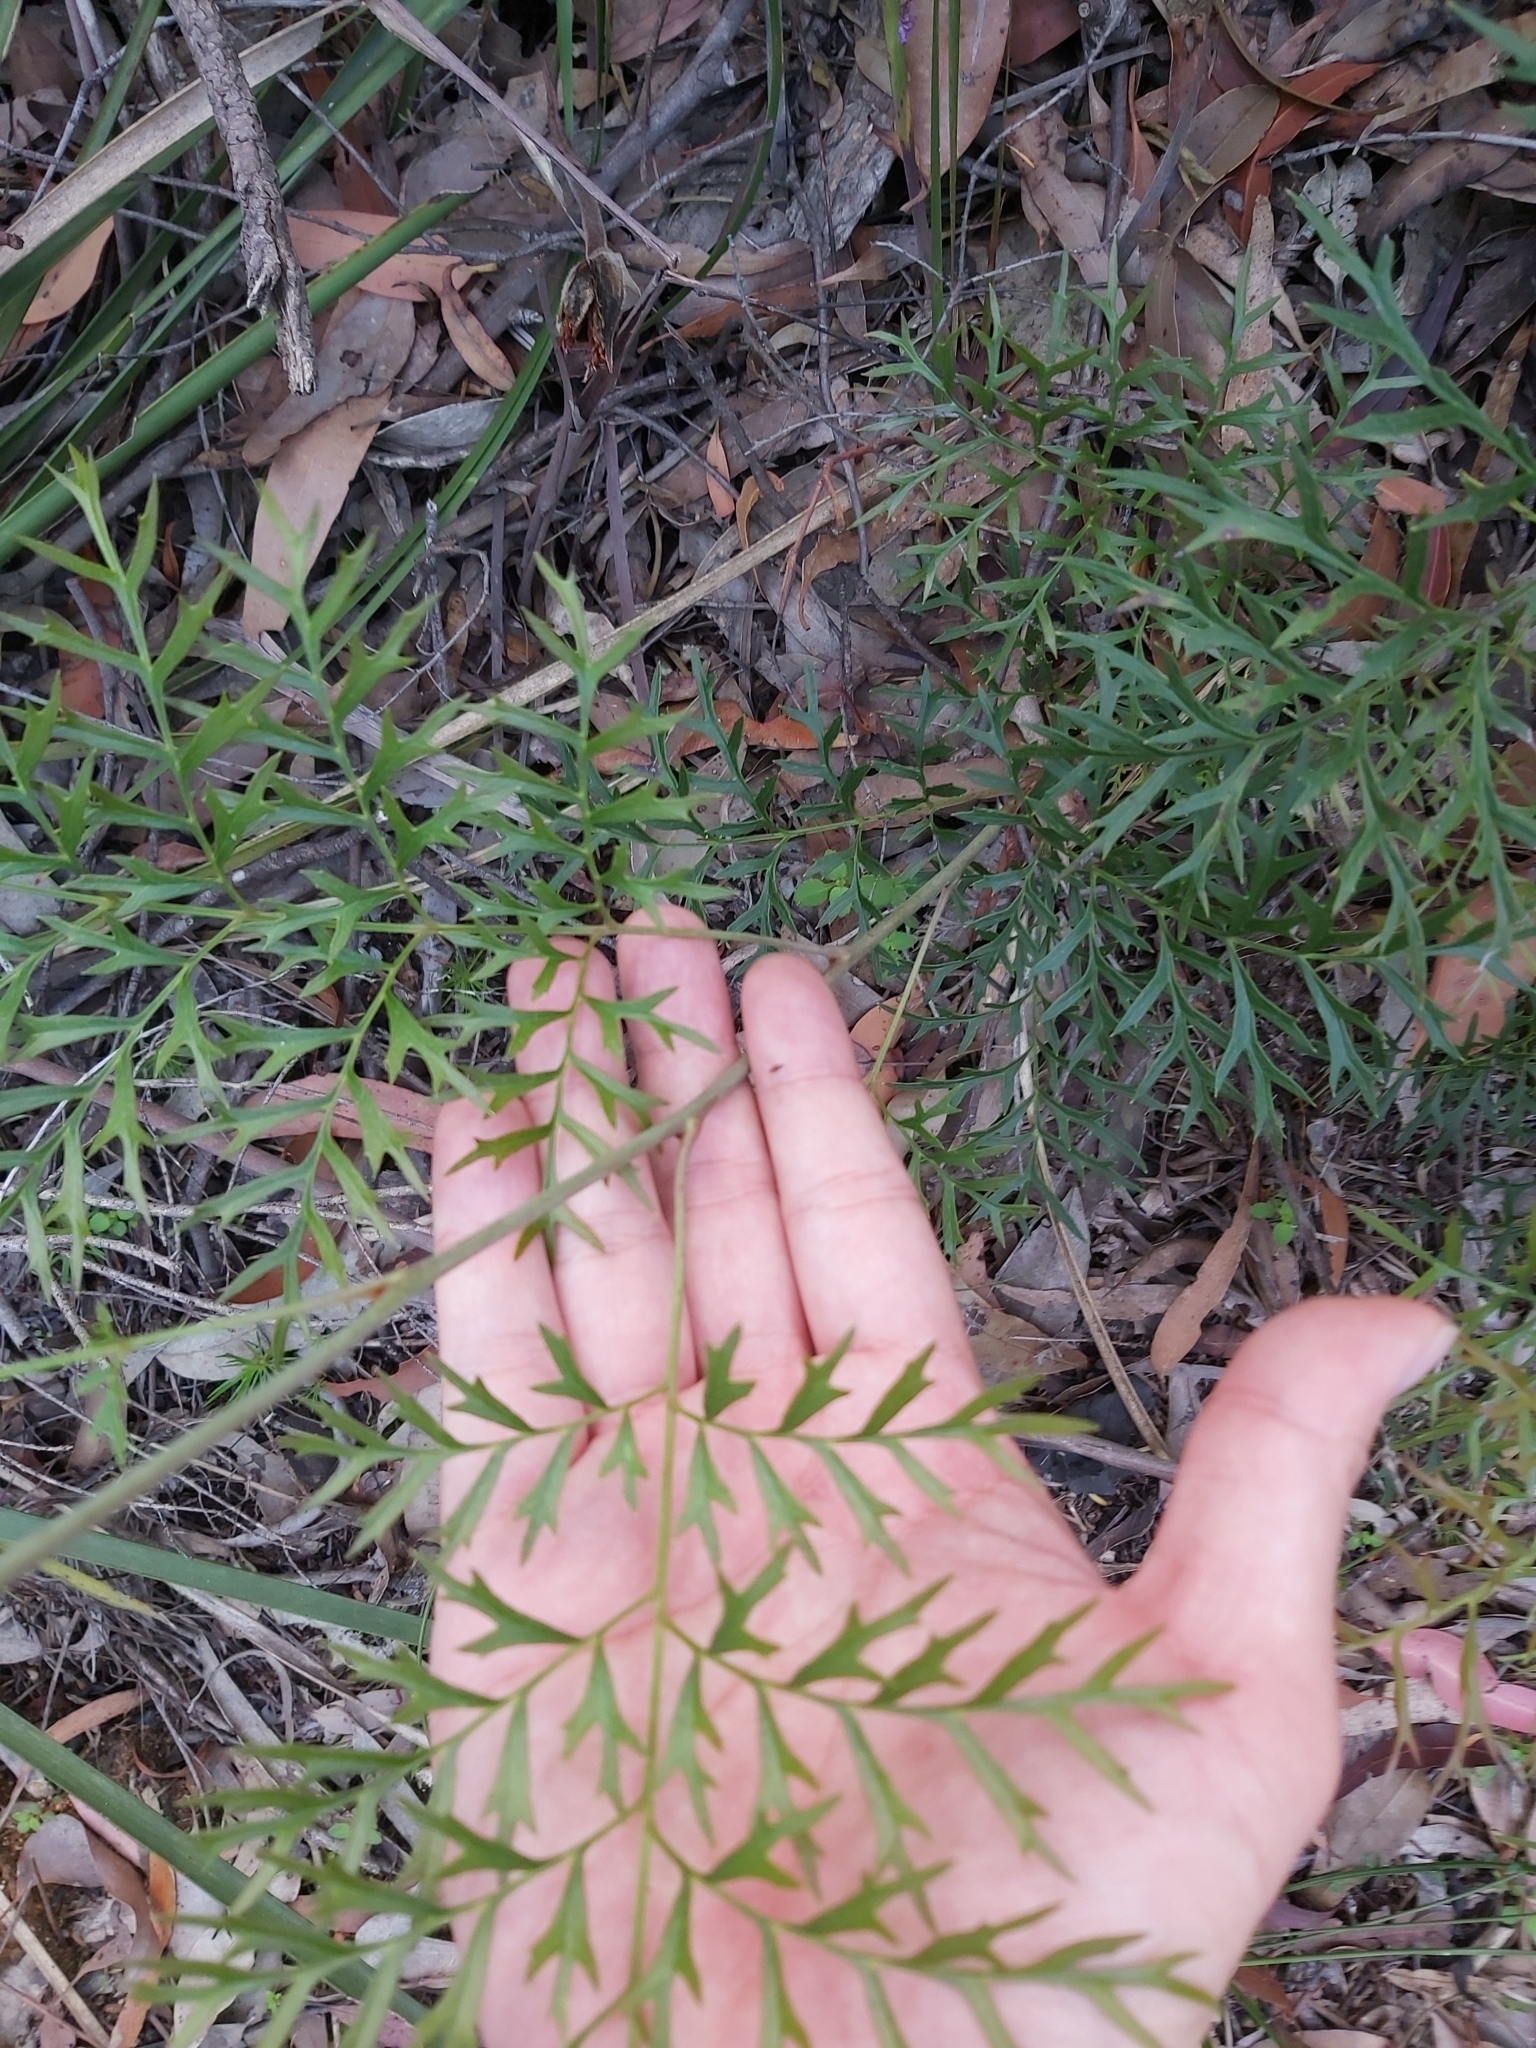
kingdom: Plantae
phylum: Tracheophyta
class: Magnoliopsida
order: Proteales
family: Proteaceae
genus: Lomatia
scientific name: Lomatia silaifolia
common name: Crinklebush
